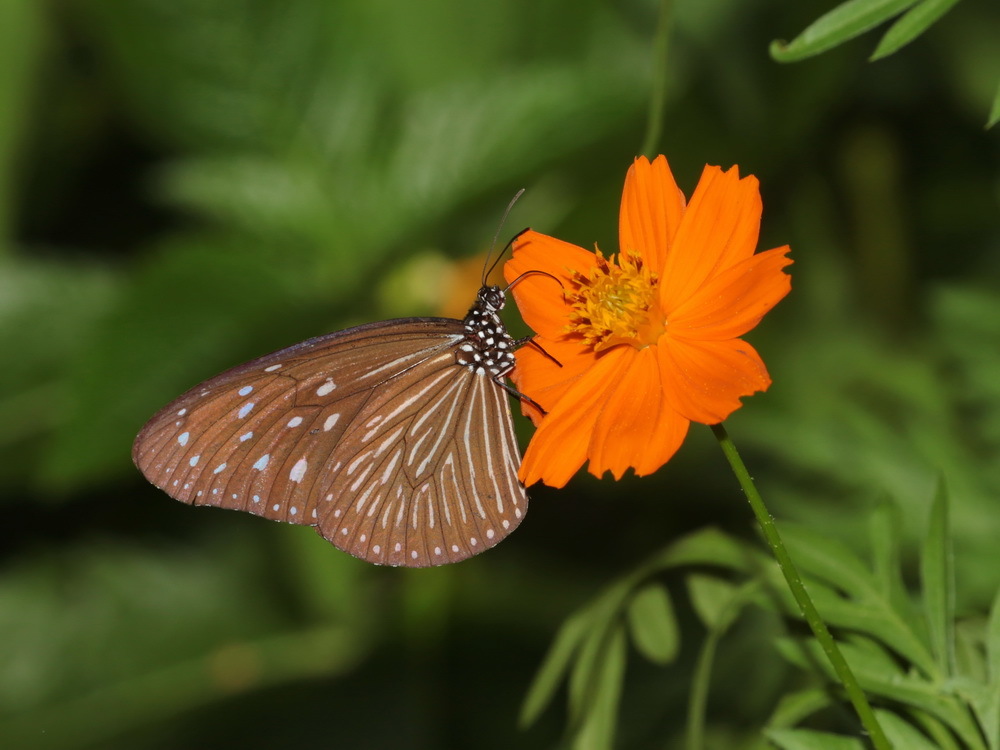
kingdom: Animalia
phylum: Arthropoda
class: Insecta
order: Lepidoptera
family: Nymphalidae
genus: Euploea
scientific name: Euploea mulciber
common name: Striped blue crow butterfly
